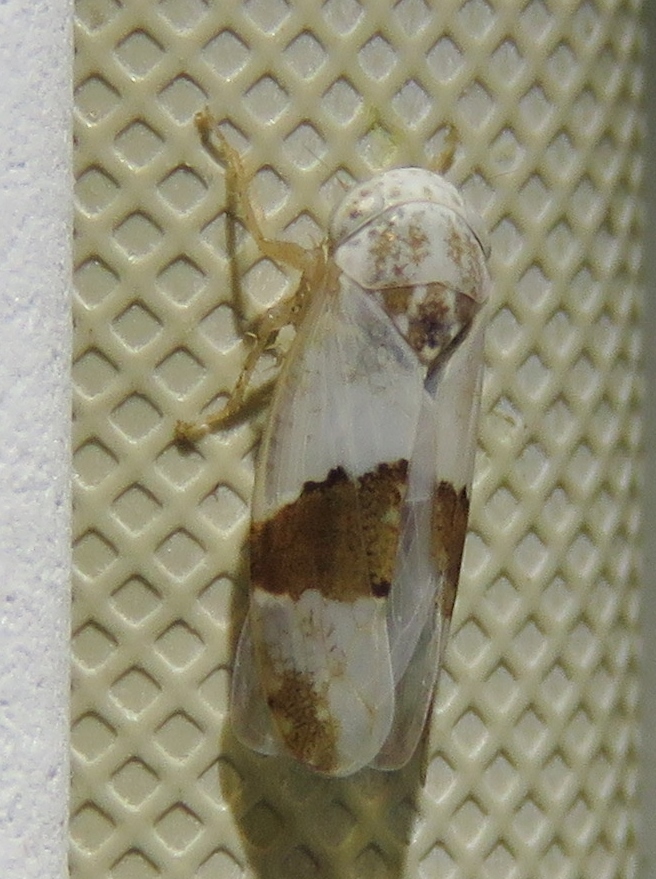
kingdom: Animalia
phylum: Arthropoda
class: Insecta
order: Hemiptera
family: Cicadellidae
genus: Norvellina
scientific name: Norvellina seminuda
